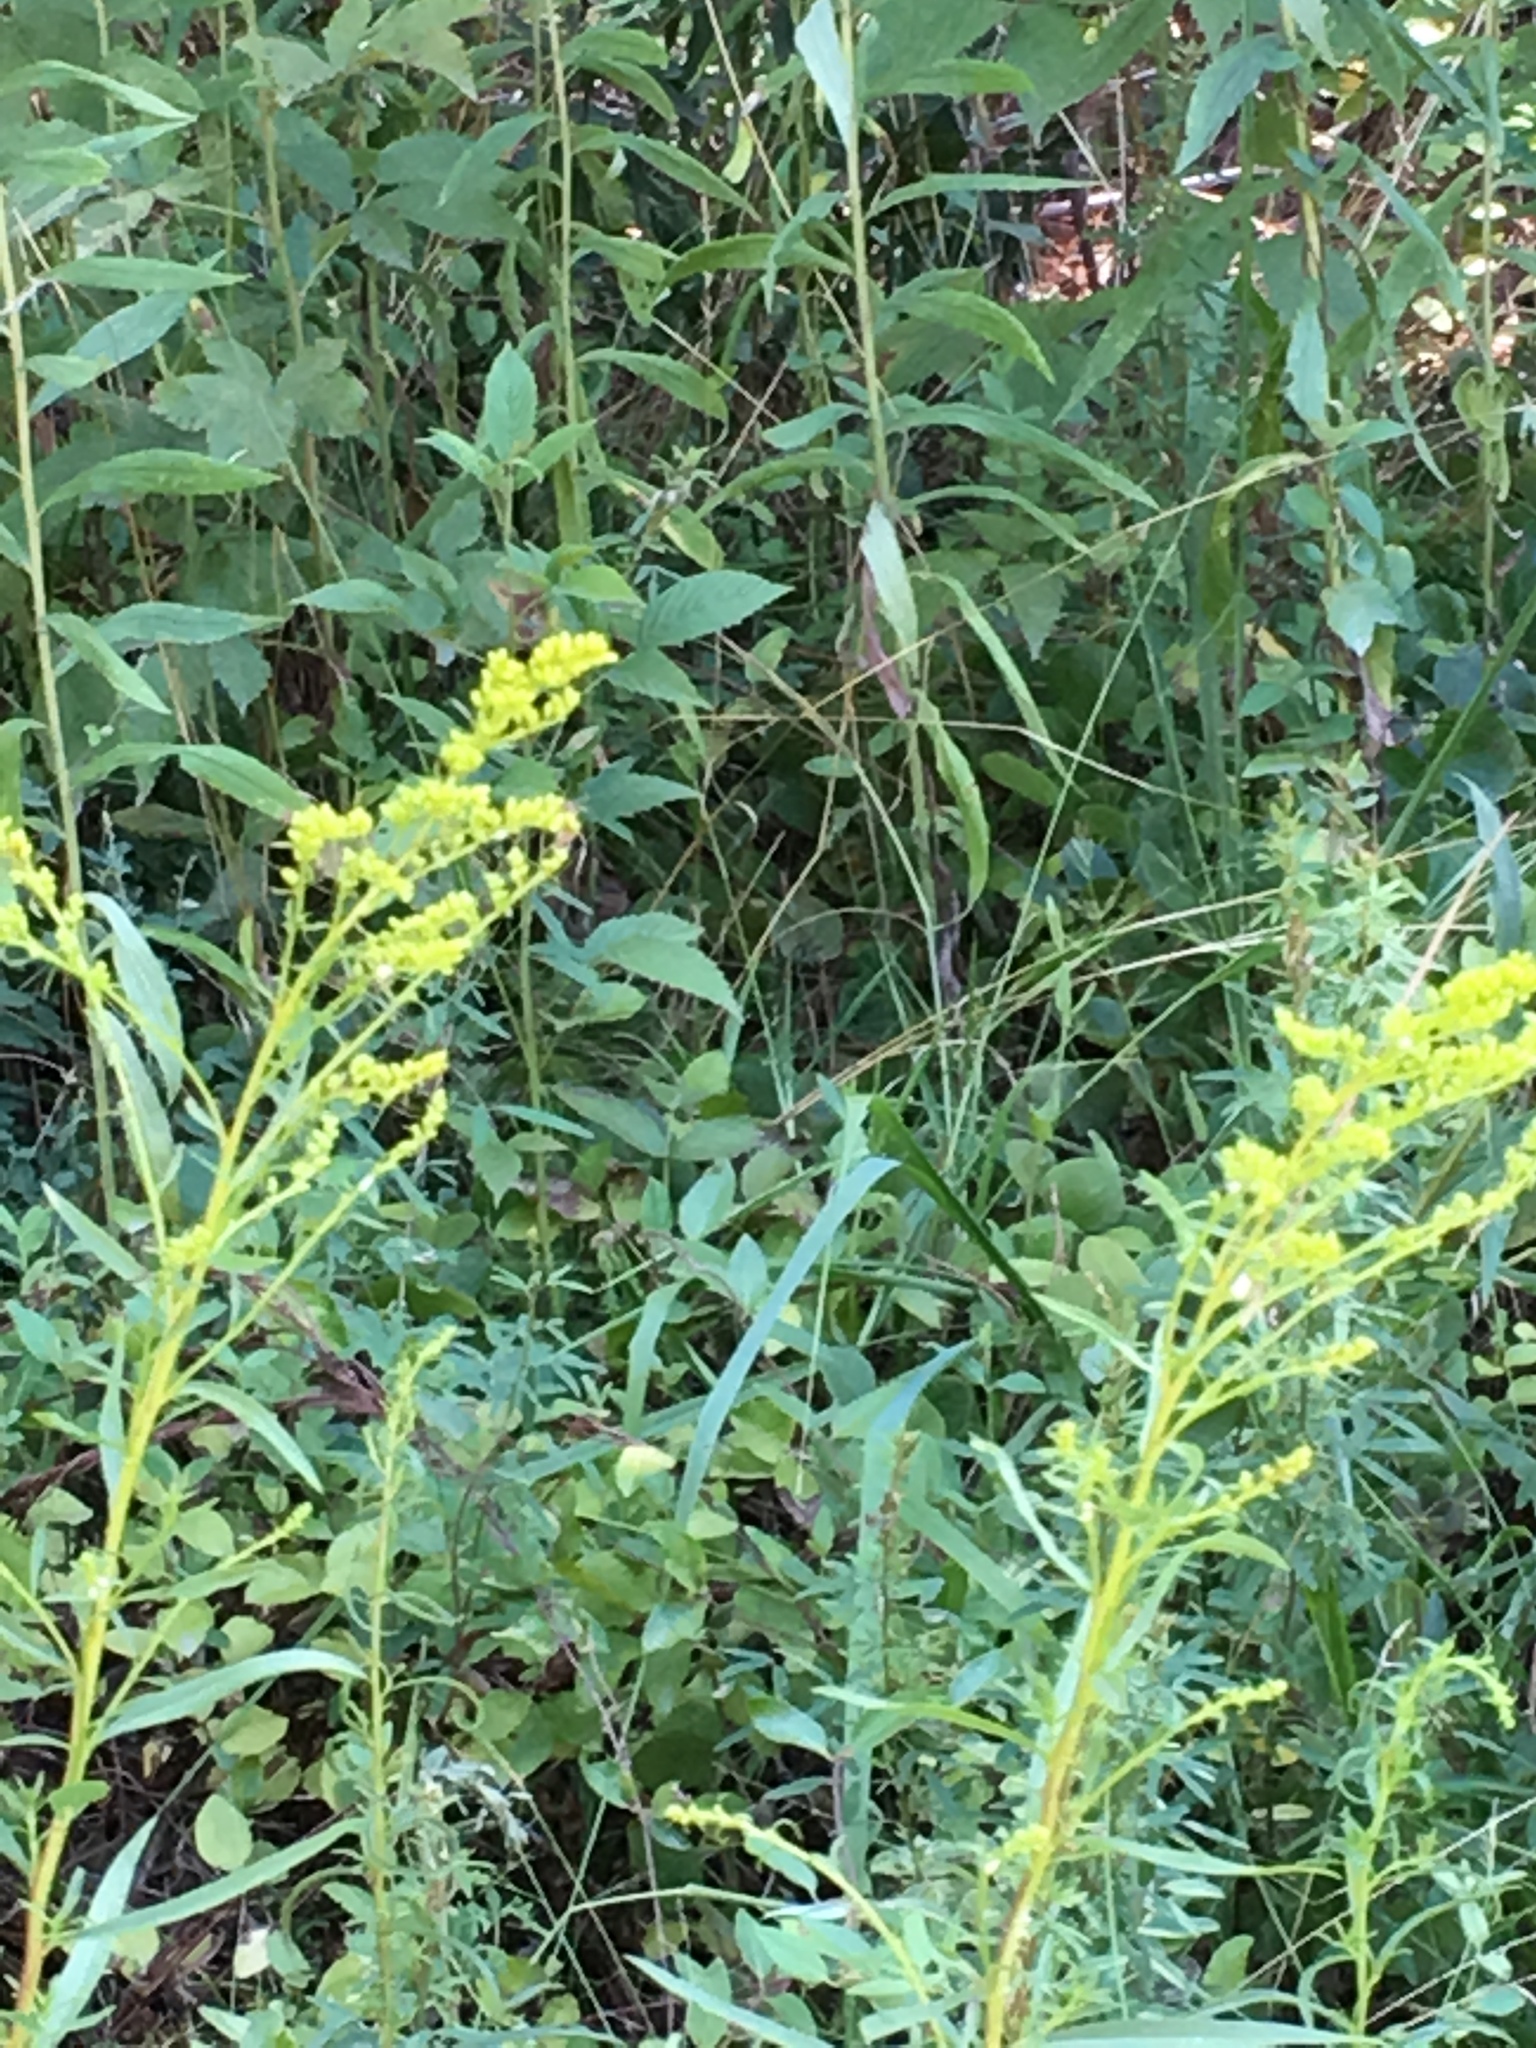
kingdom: Plantae
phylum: Tracheophyta
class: Magnoliopsida
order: Asterales
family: Asteraceae
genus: Solidago
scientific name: Solidago pinetorum
